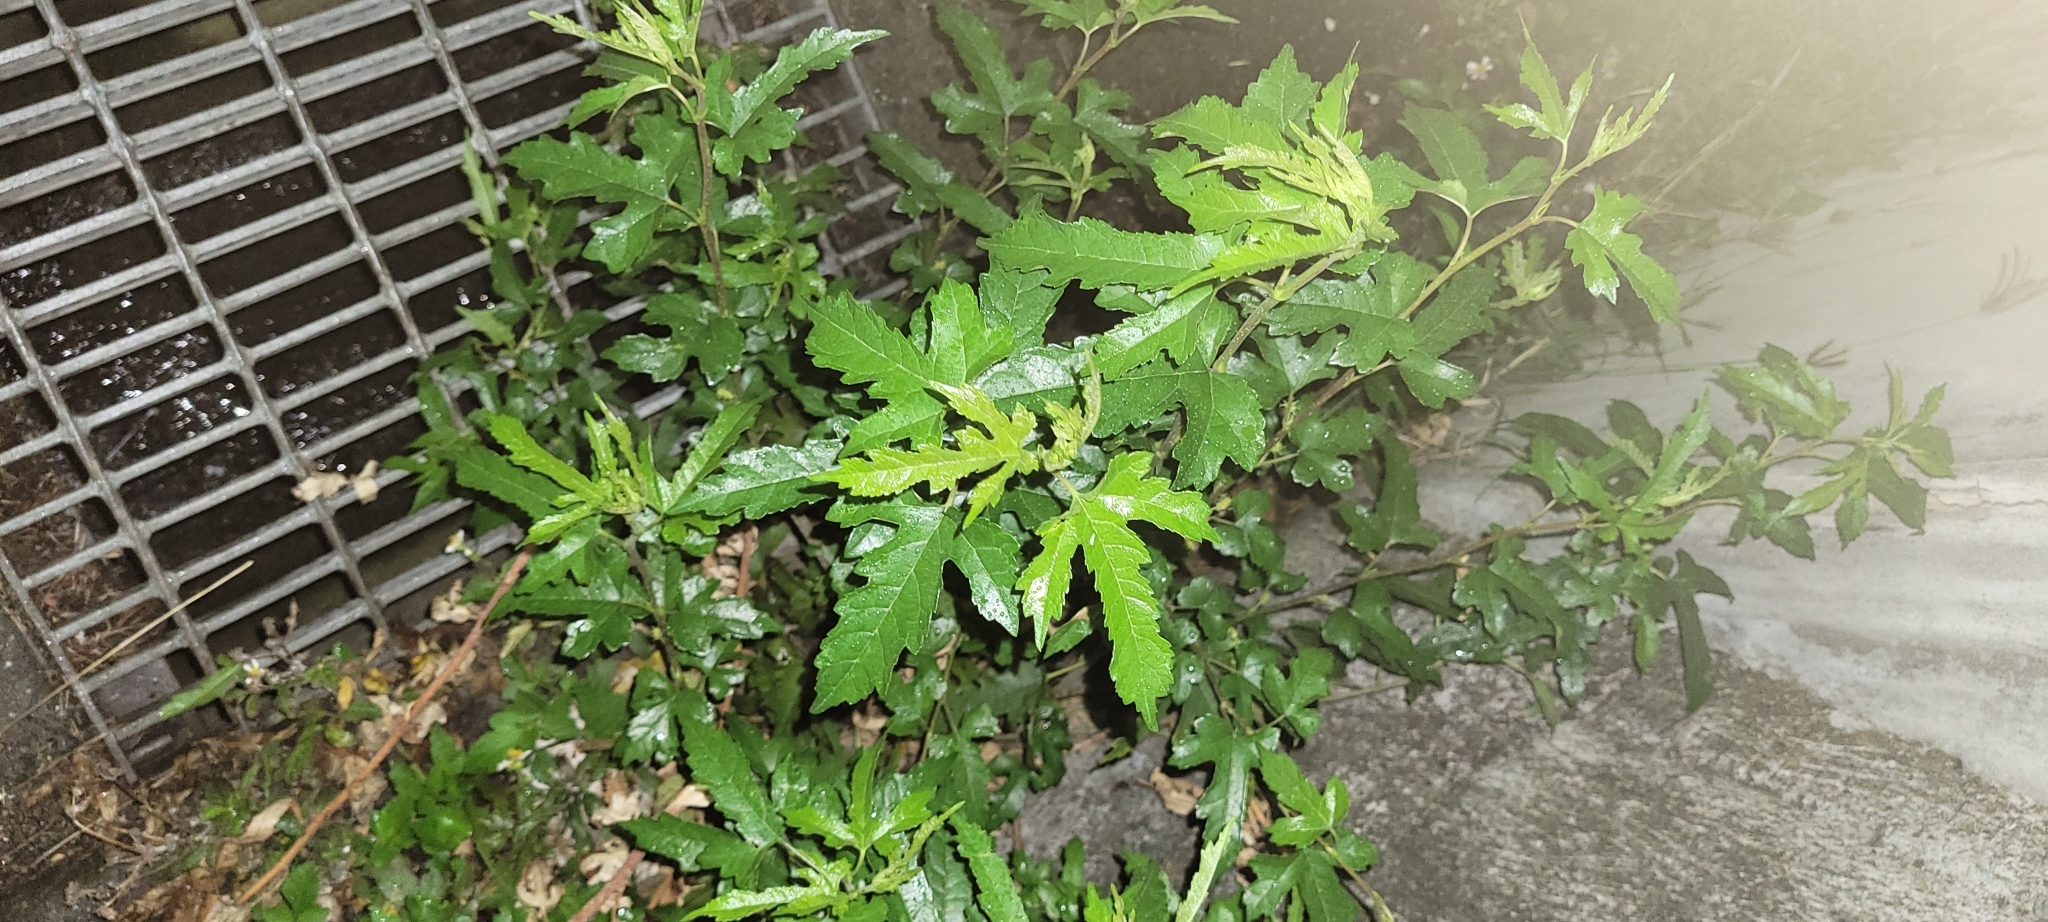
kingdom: Plantae
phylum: Tracheophyta
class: Magnoliopsida
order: Rosales
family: Moraceae
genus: Morus
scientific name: Morus indica
